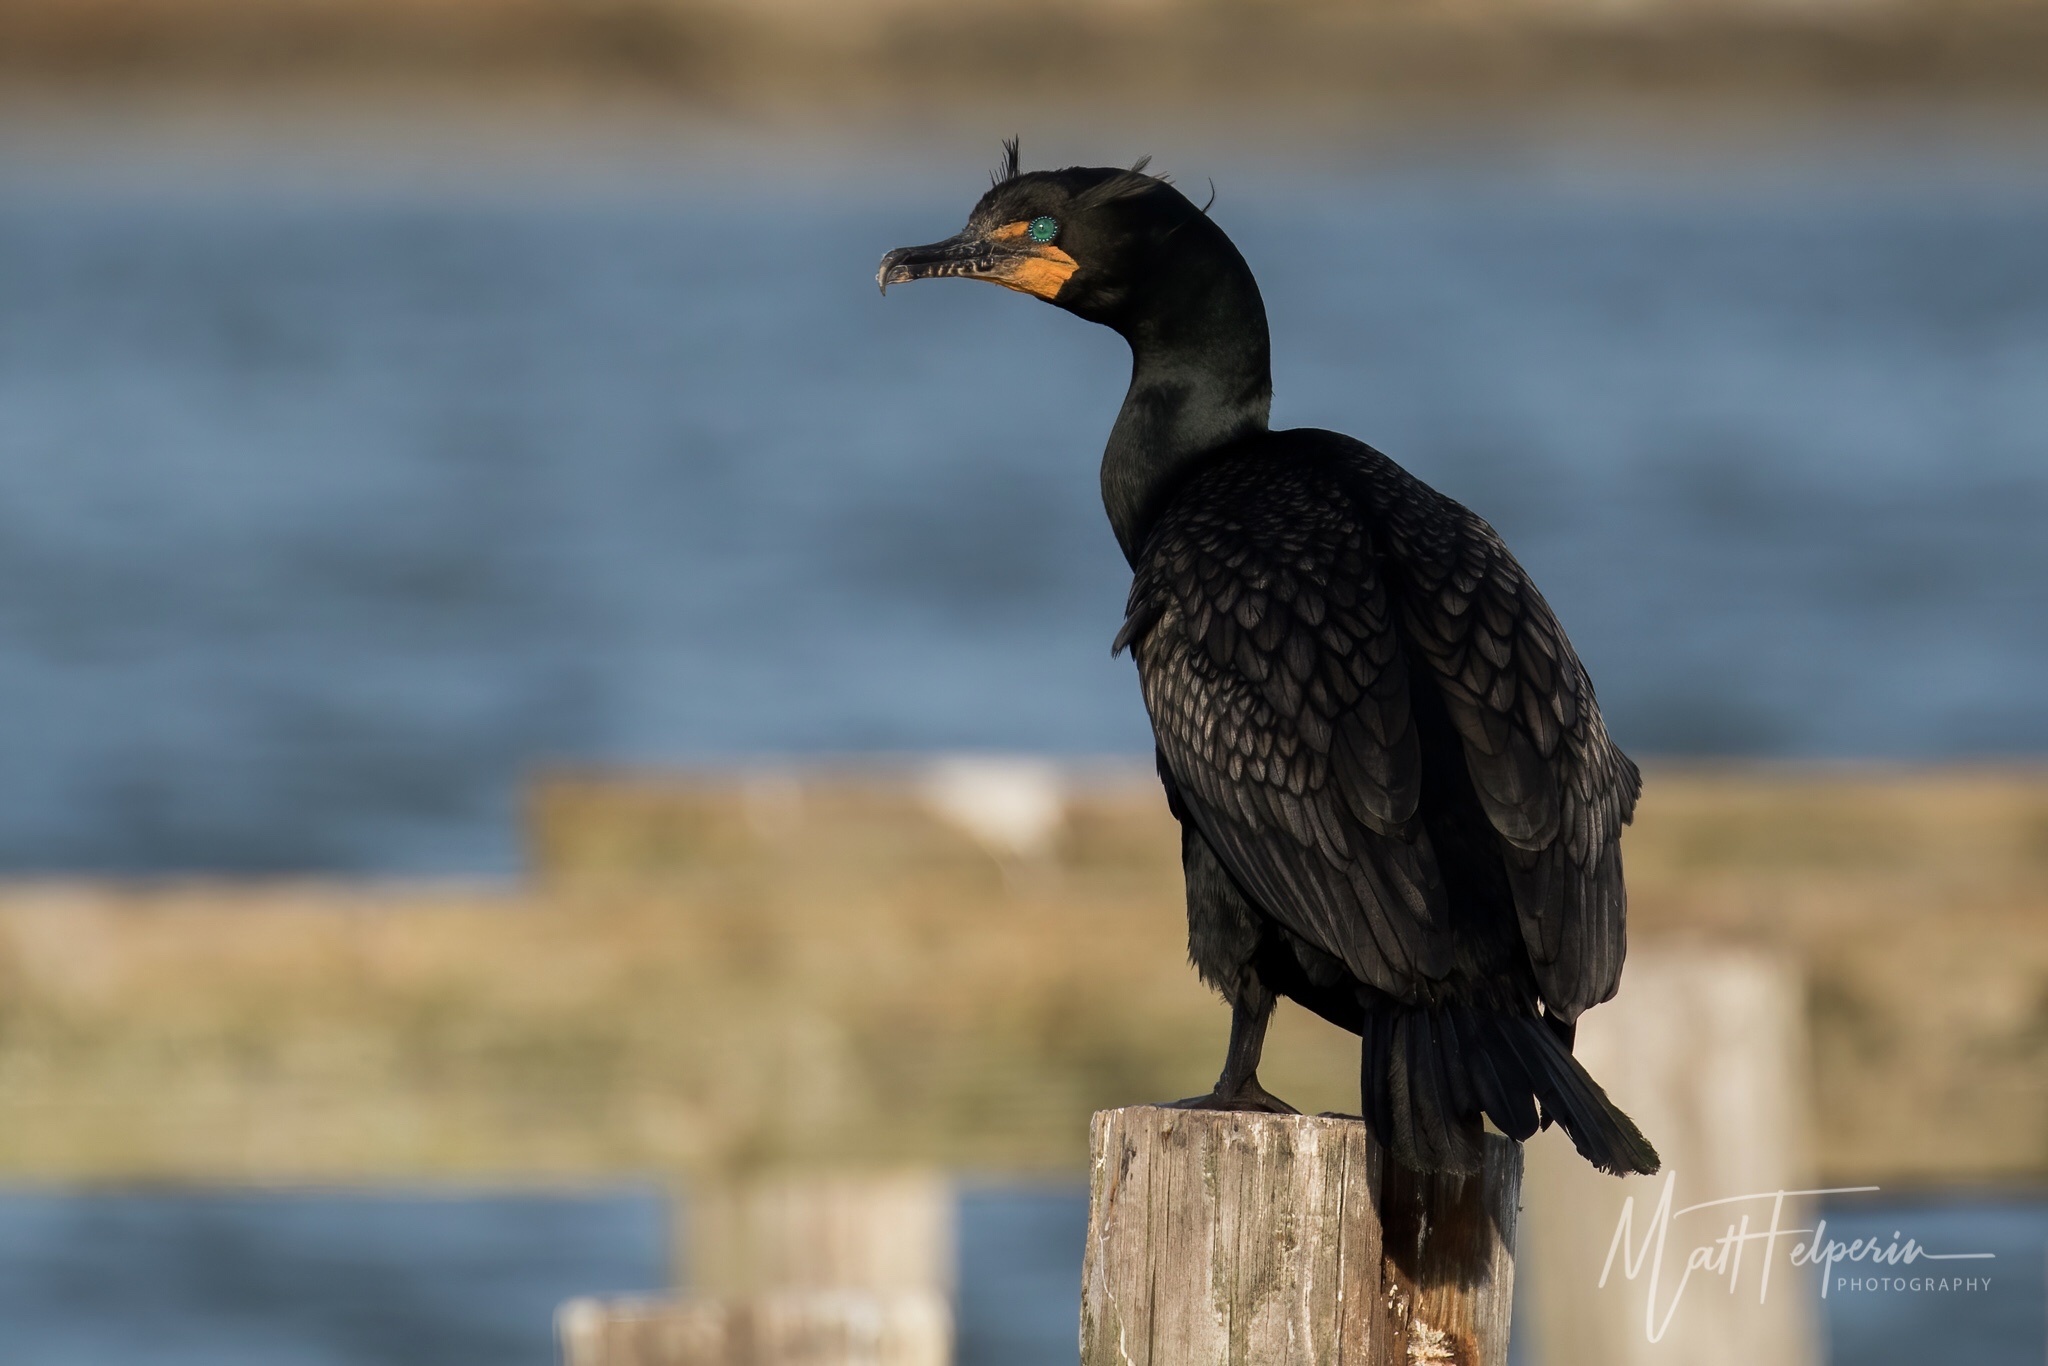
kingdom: Animalia
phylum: Chordata
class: Aves
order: Suliformes
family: Phalacrocoracidae
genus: Phalacrocorax
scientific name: Phalacrocorax auritus
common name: Double-crested cormorant
